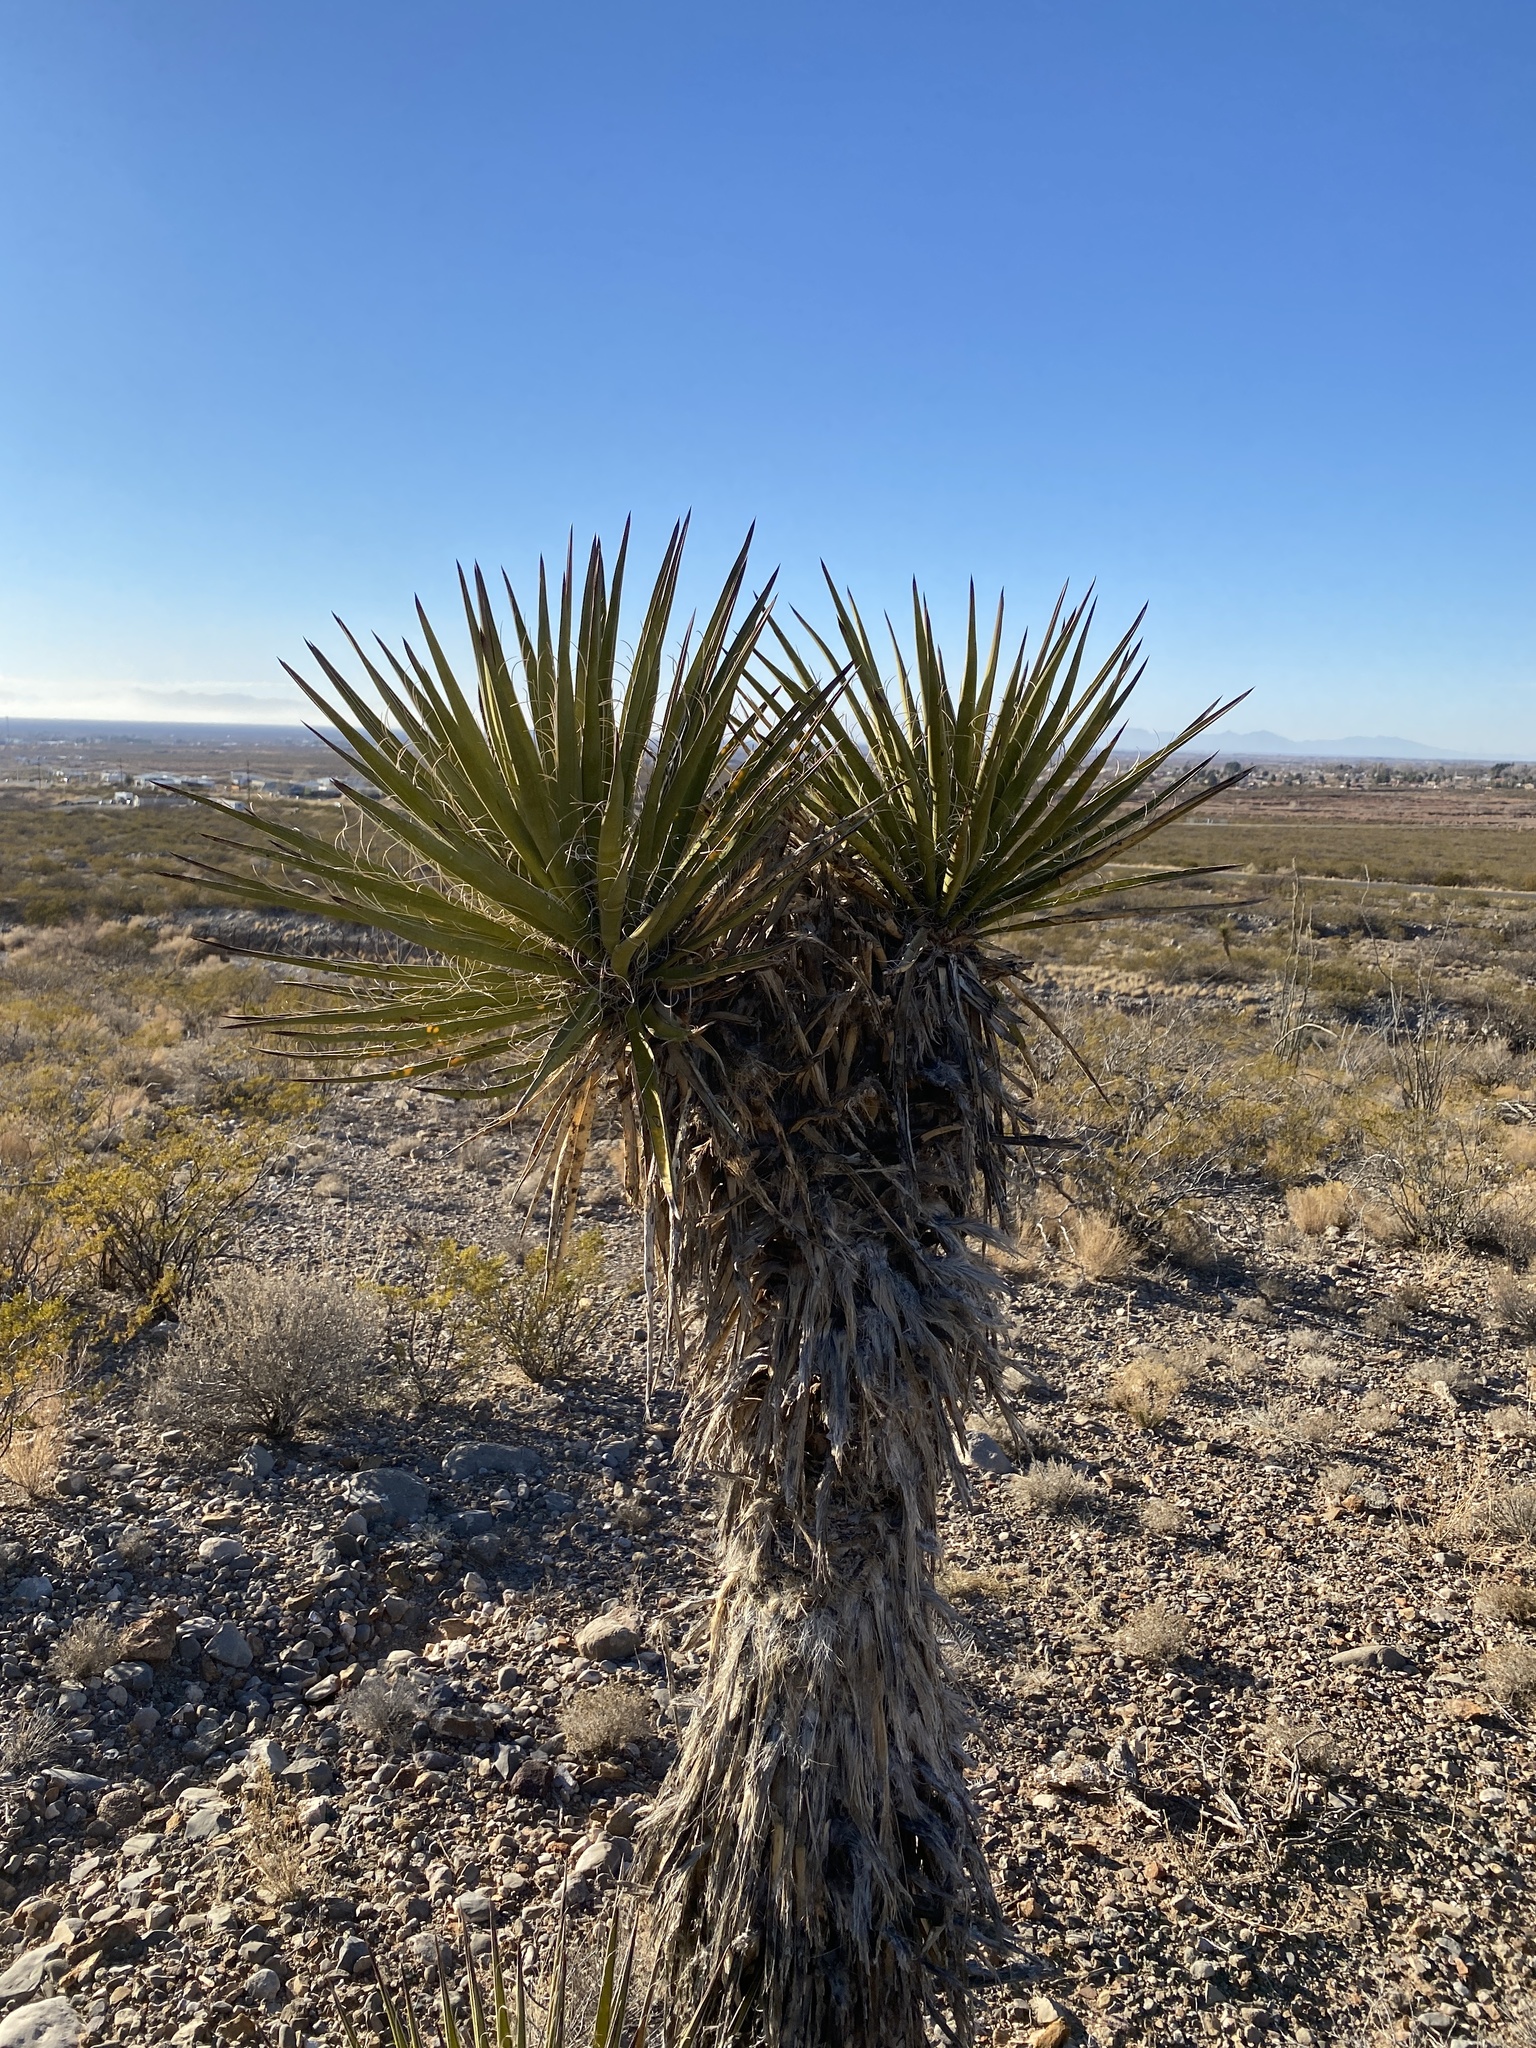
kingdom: Plantae
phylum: Tracheophyta
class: Liliopsida
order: Asparagales
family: Asparagaceae
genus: Yucca
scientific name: Yucca treculiana
